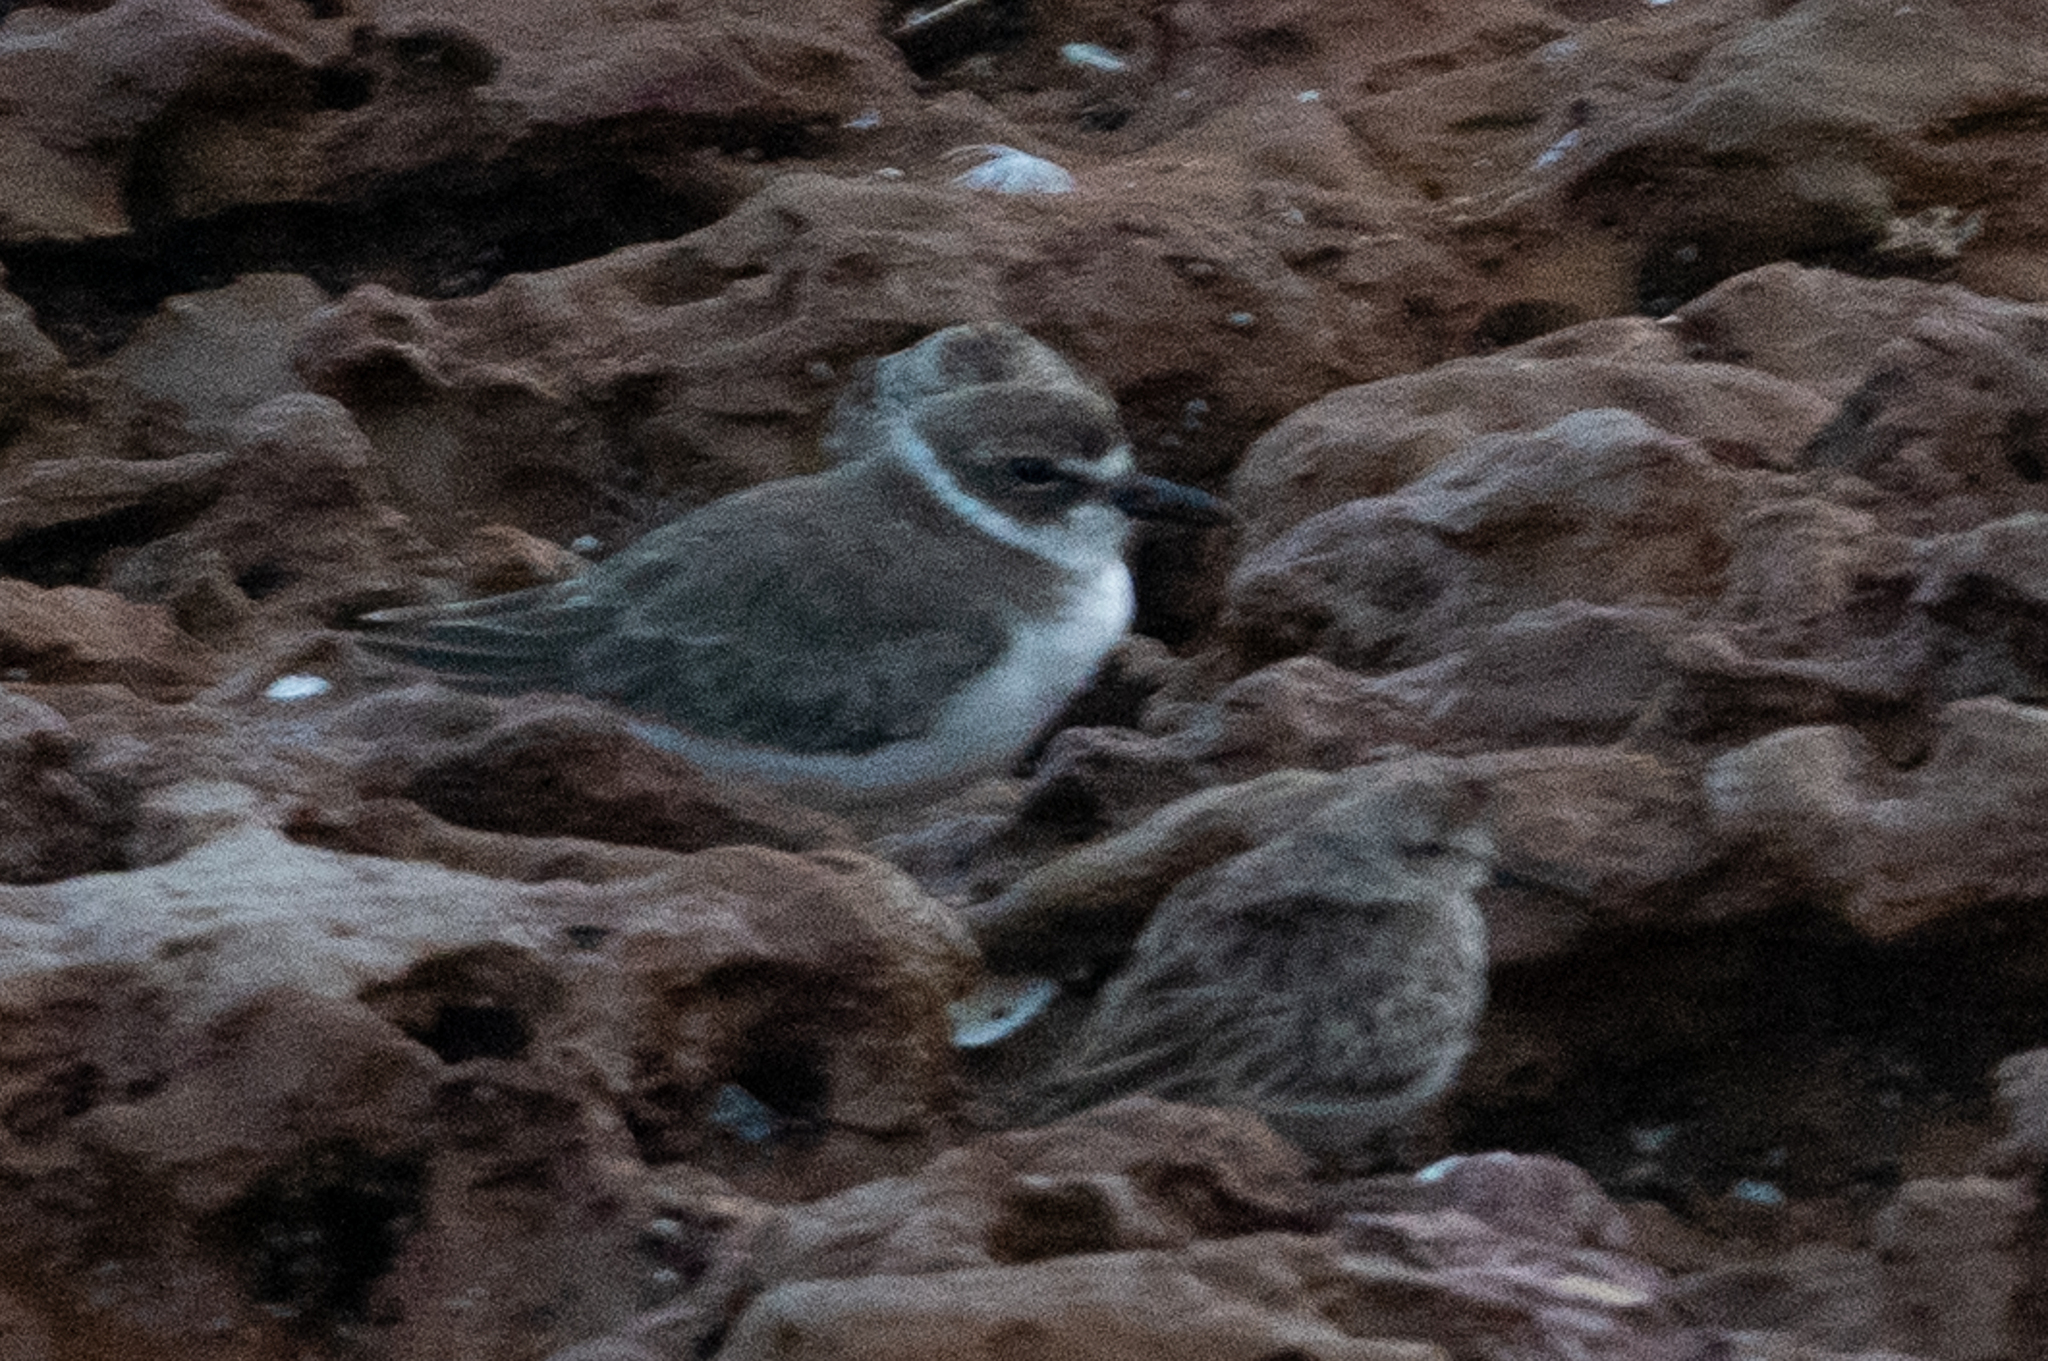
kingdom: Animalia
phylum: Chordata
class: Aves
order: Charadriiformes
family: Charadriidae
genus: Anarhynchus
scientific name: Anarhynchus
